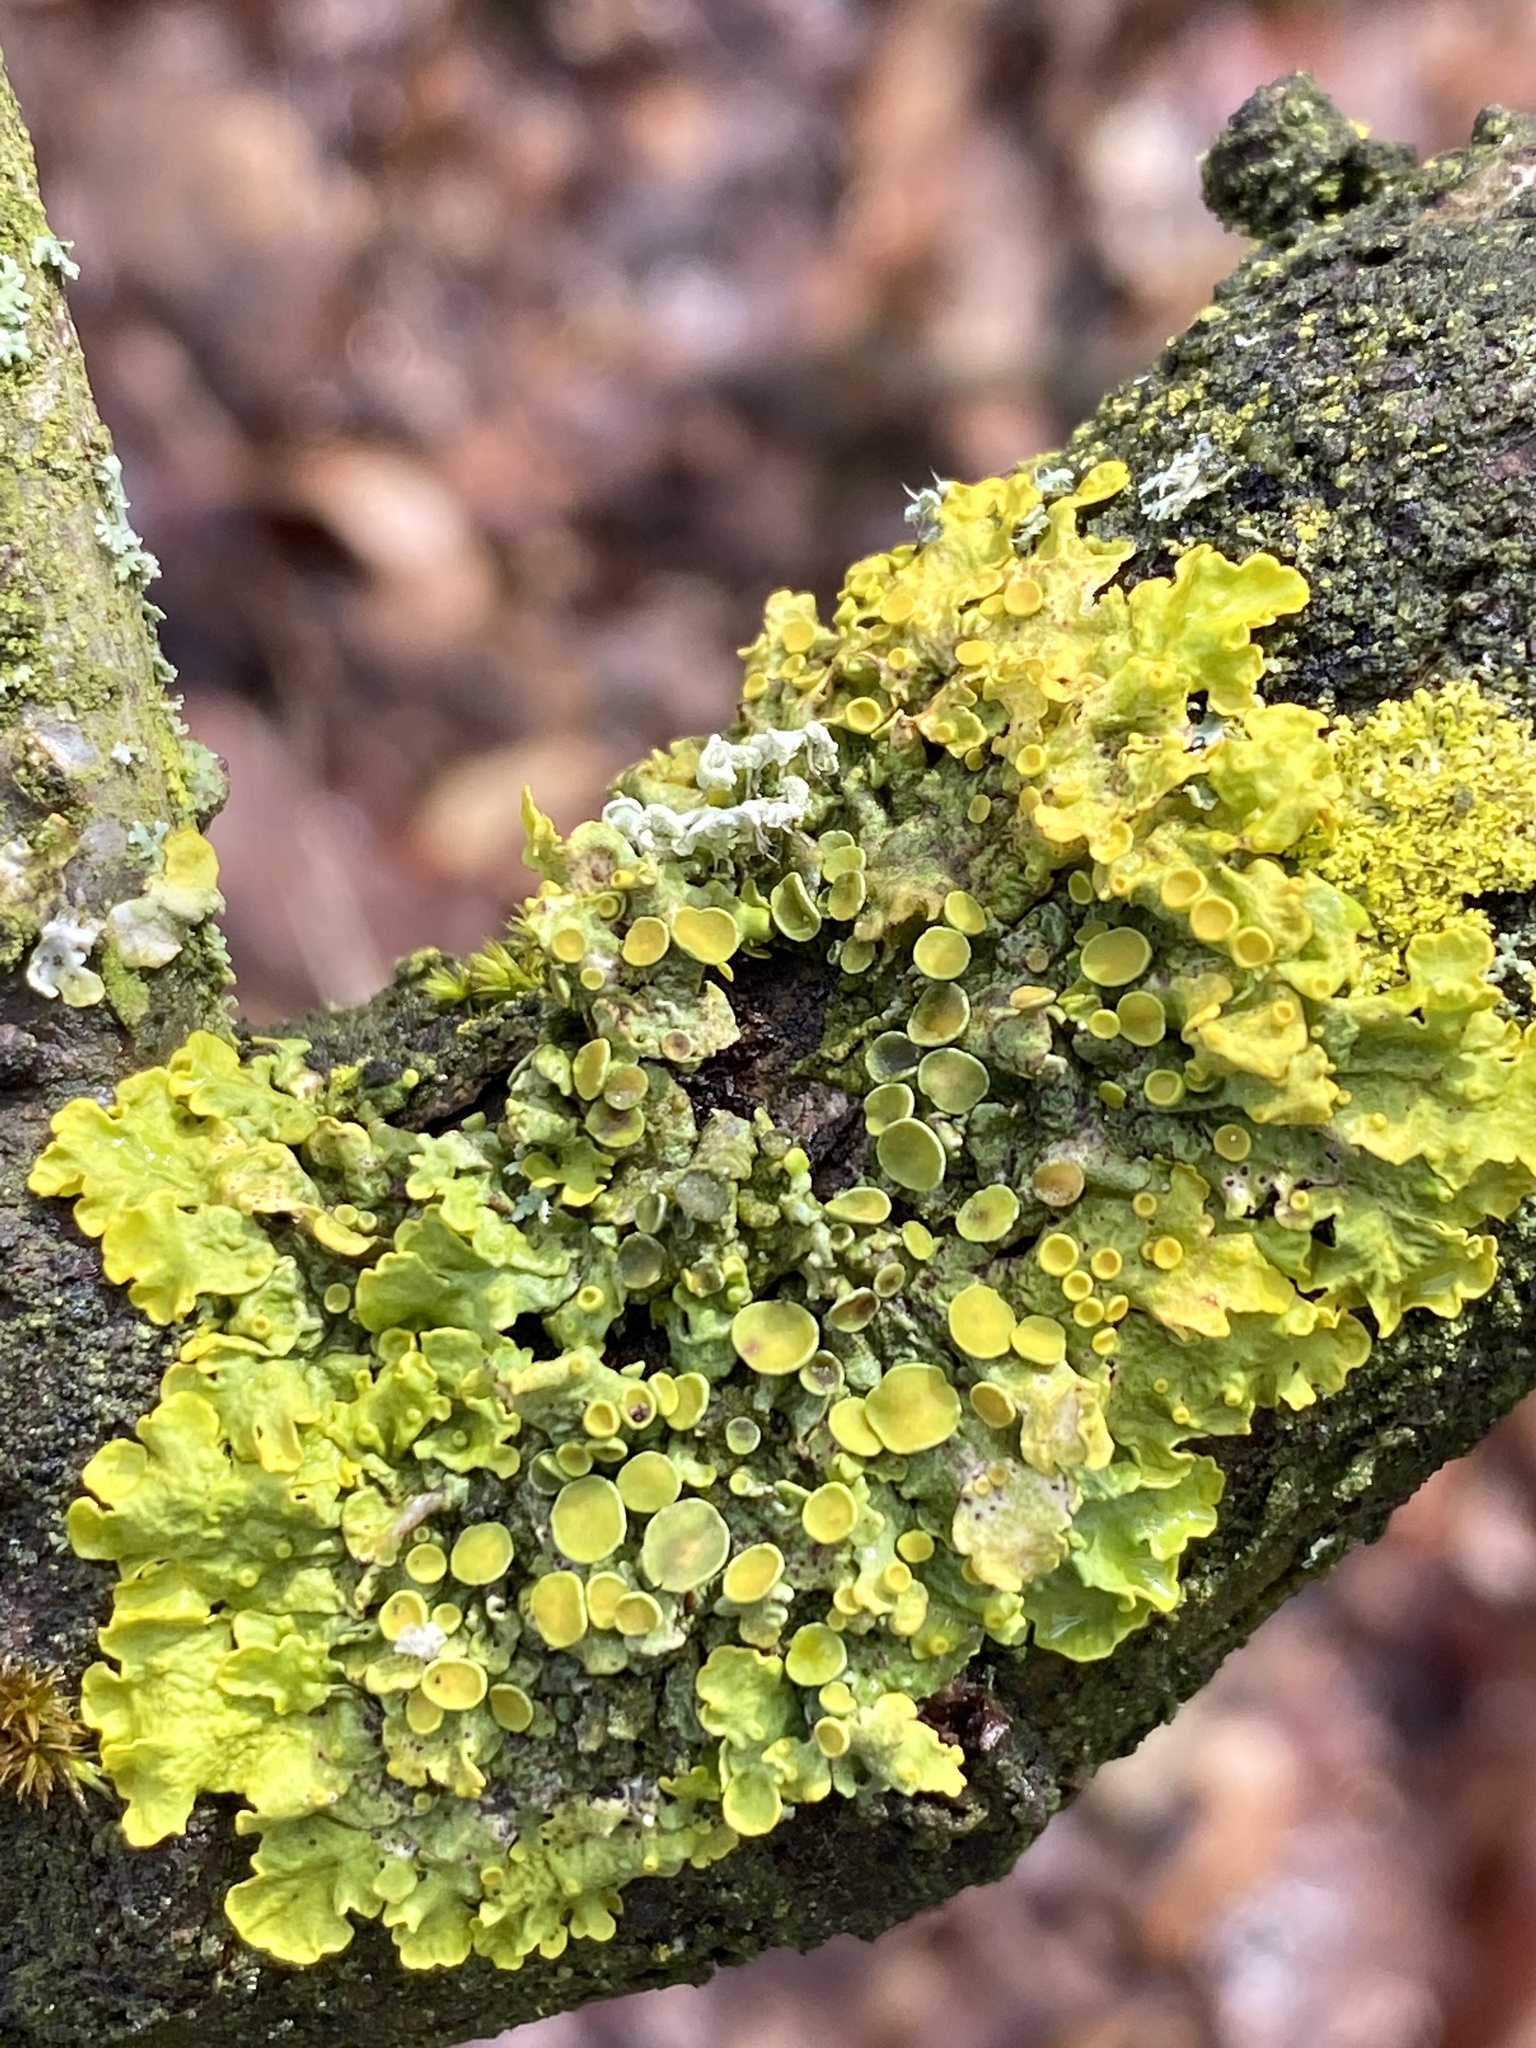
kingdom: Fungi
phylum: Ascomycota
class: Lecanoromycetes
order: Teloschistales
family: Teloschistaceae
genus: Xanthoria
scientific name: Xanthoria parietina
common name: Common orange lichen
